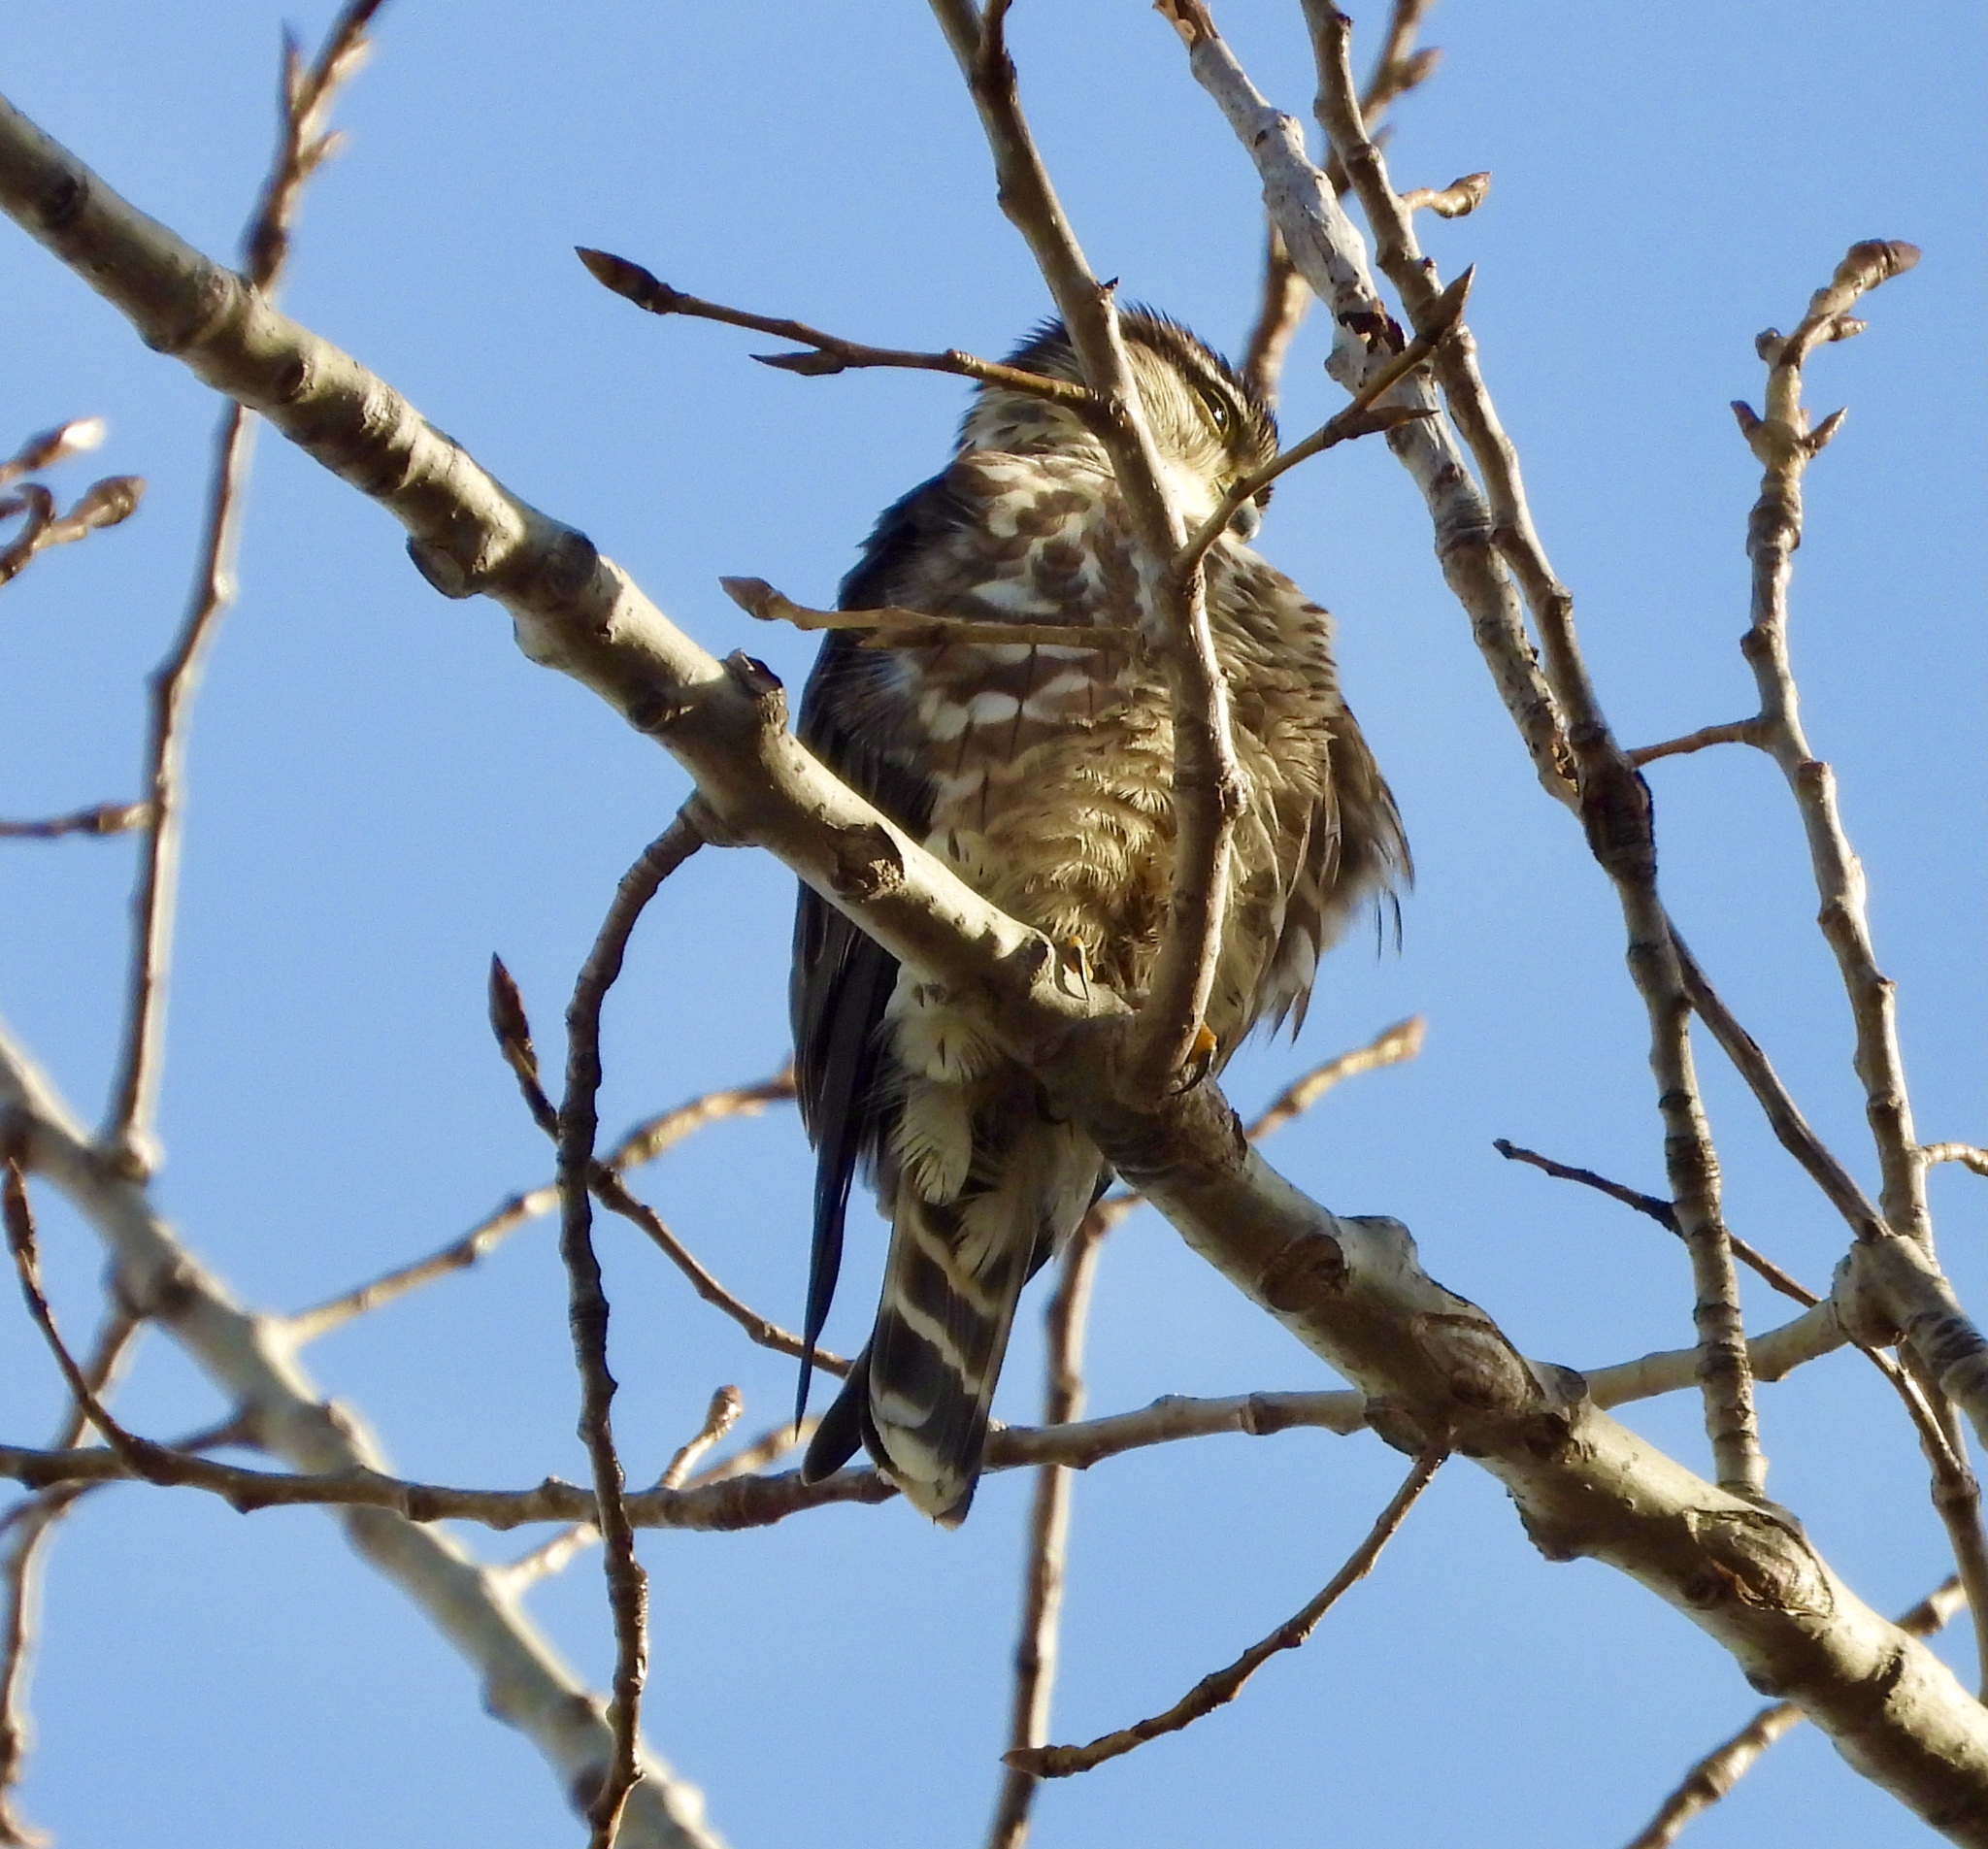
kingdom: Animalia
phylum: Chordata
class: Aves
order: Falconiformes
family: Falconidae
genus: Falco
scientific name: Falco columbarius
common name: Merlin
